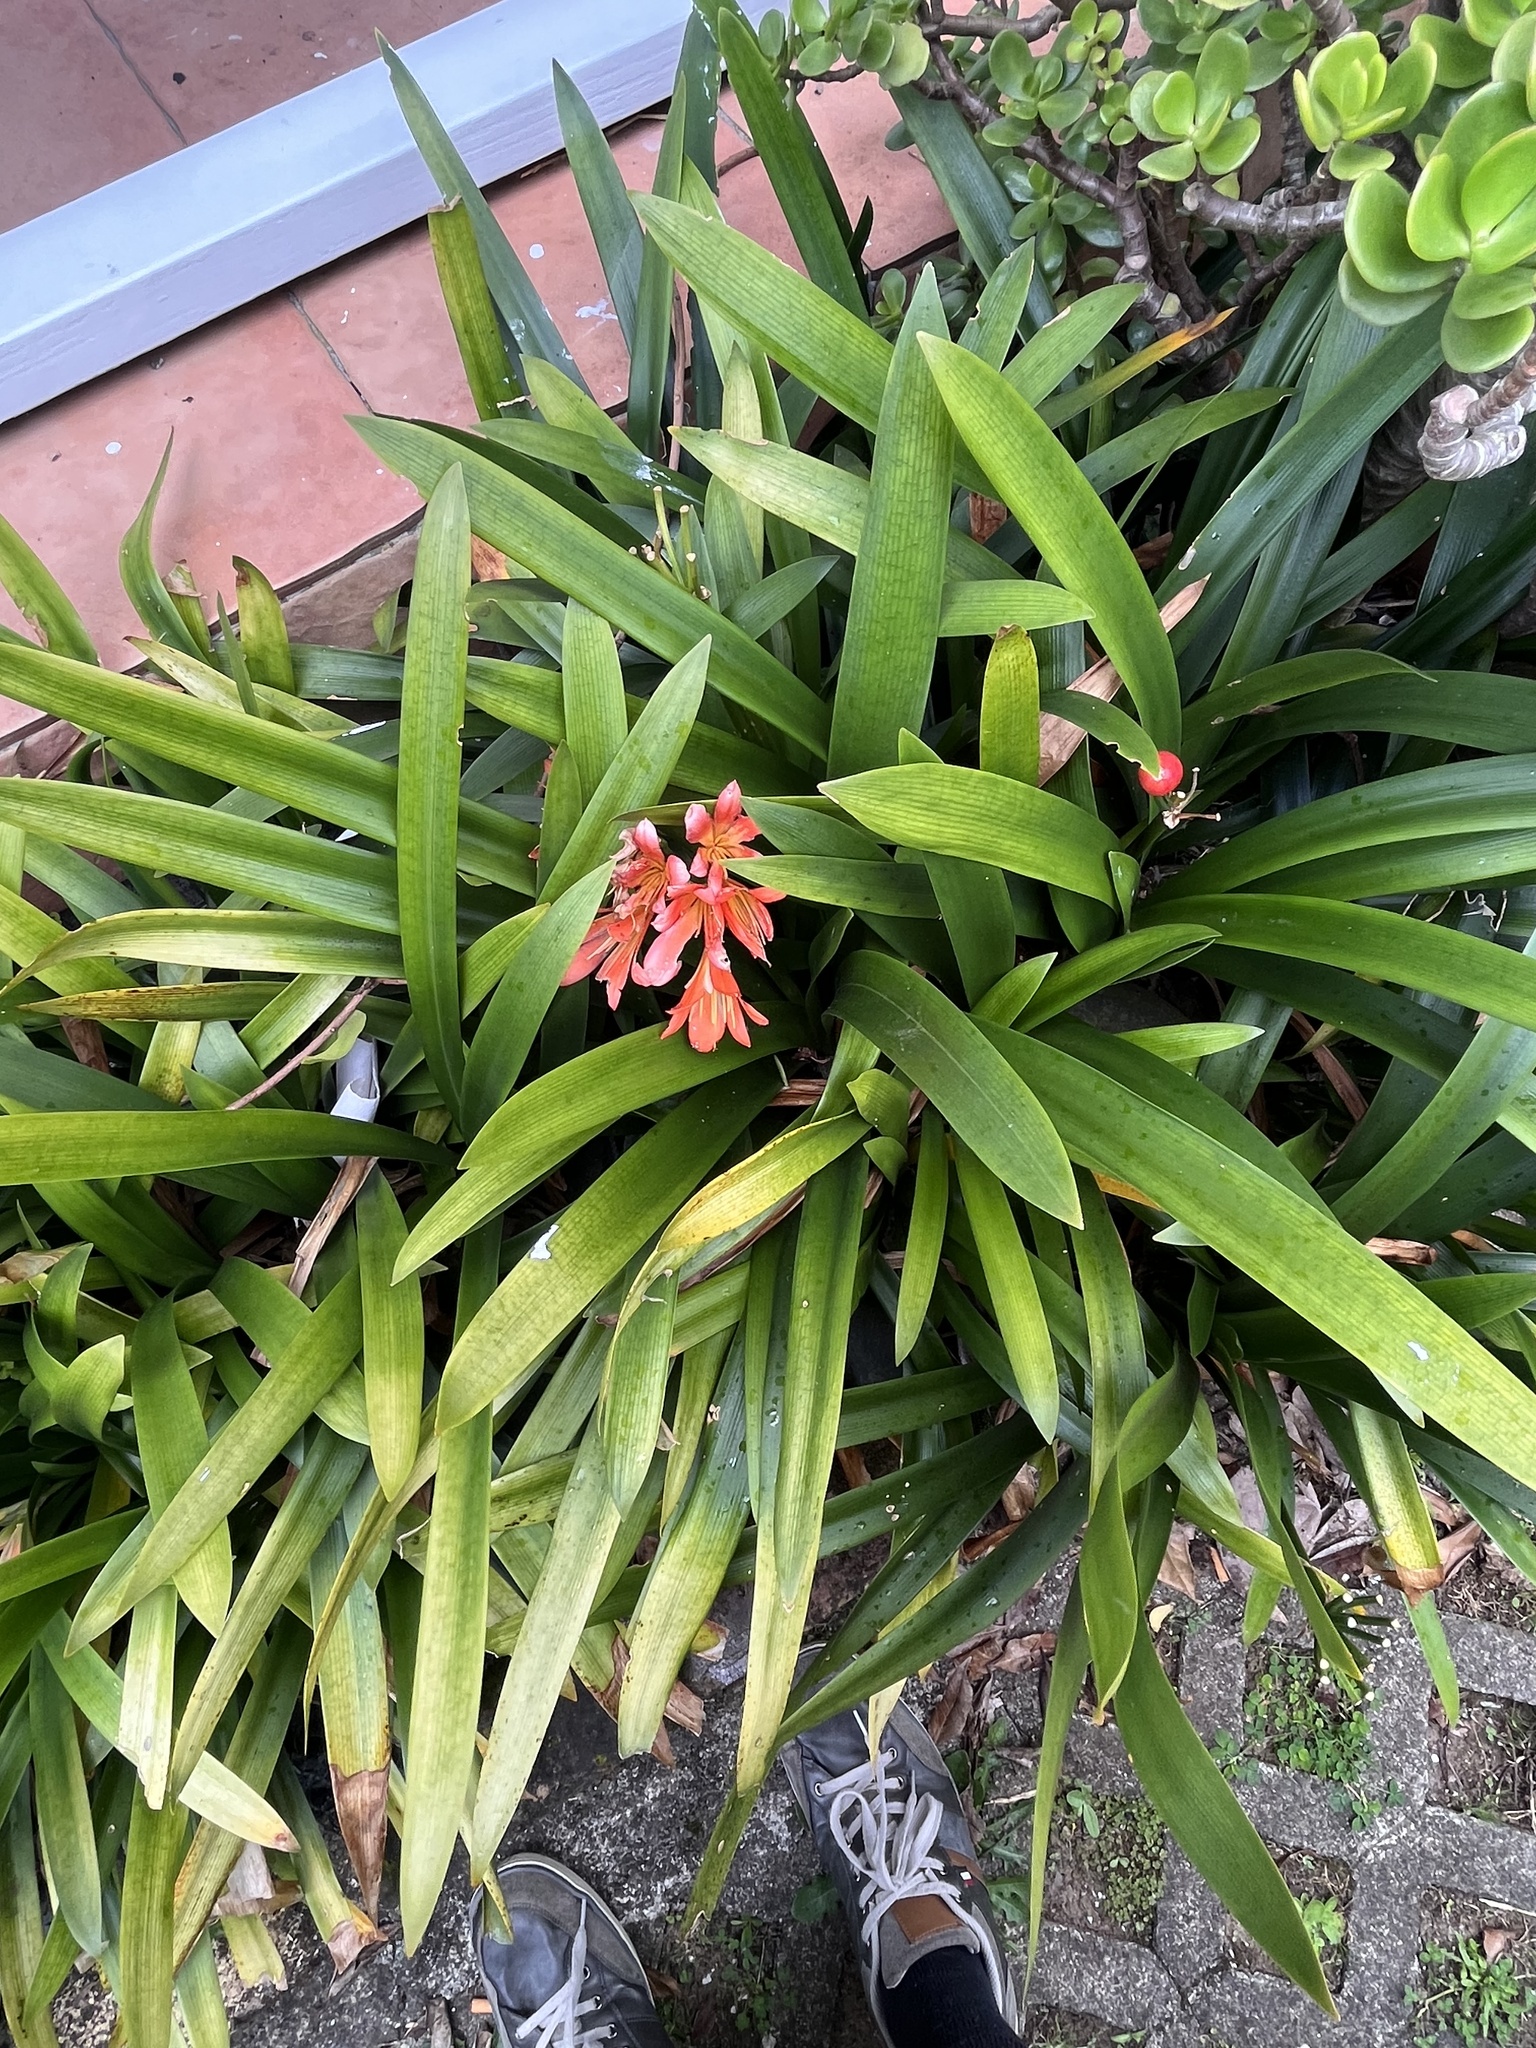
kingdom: Plantae
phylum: Tracheophyta
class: Liliopsida
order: Asparagales
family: Amaryllidaceae
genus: Clivia
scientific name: Clivia miniata
